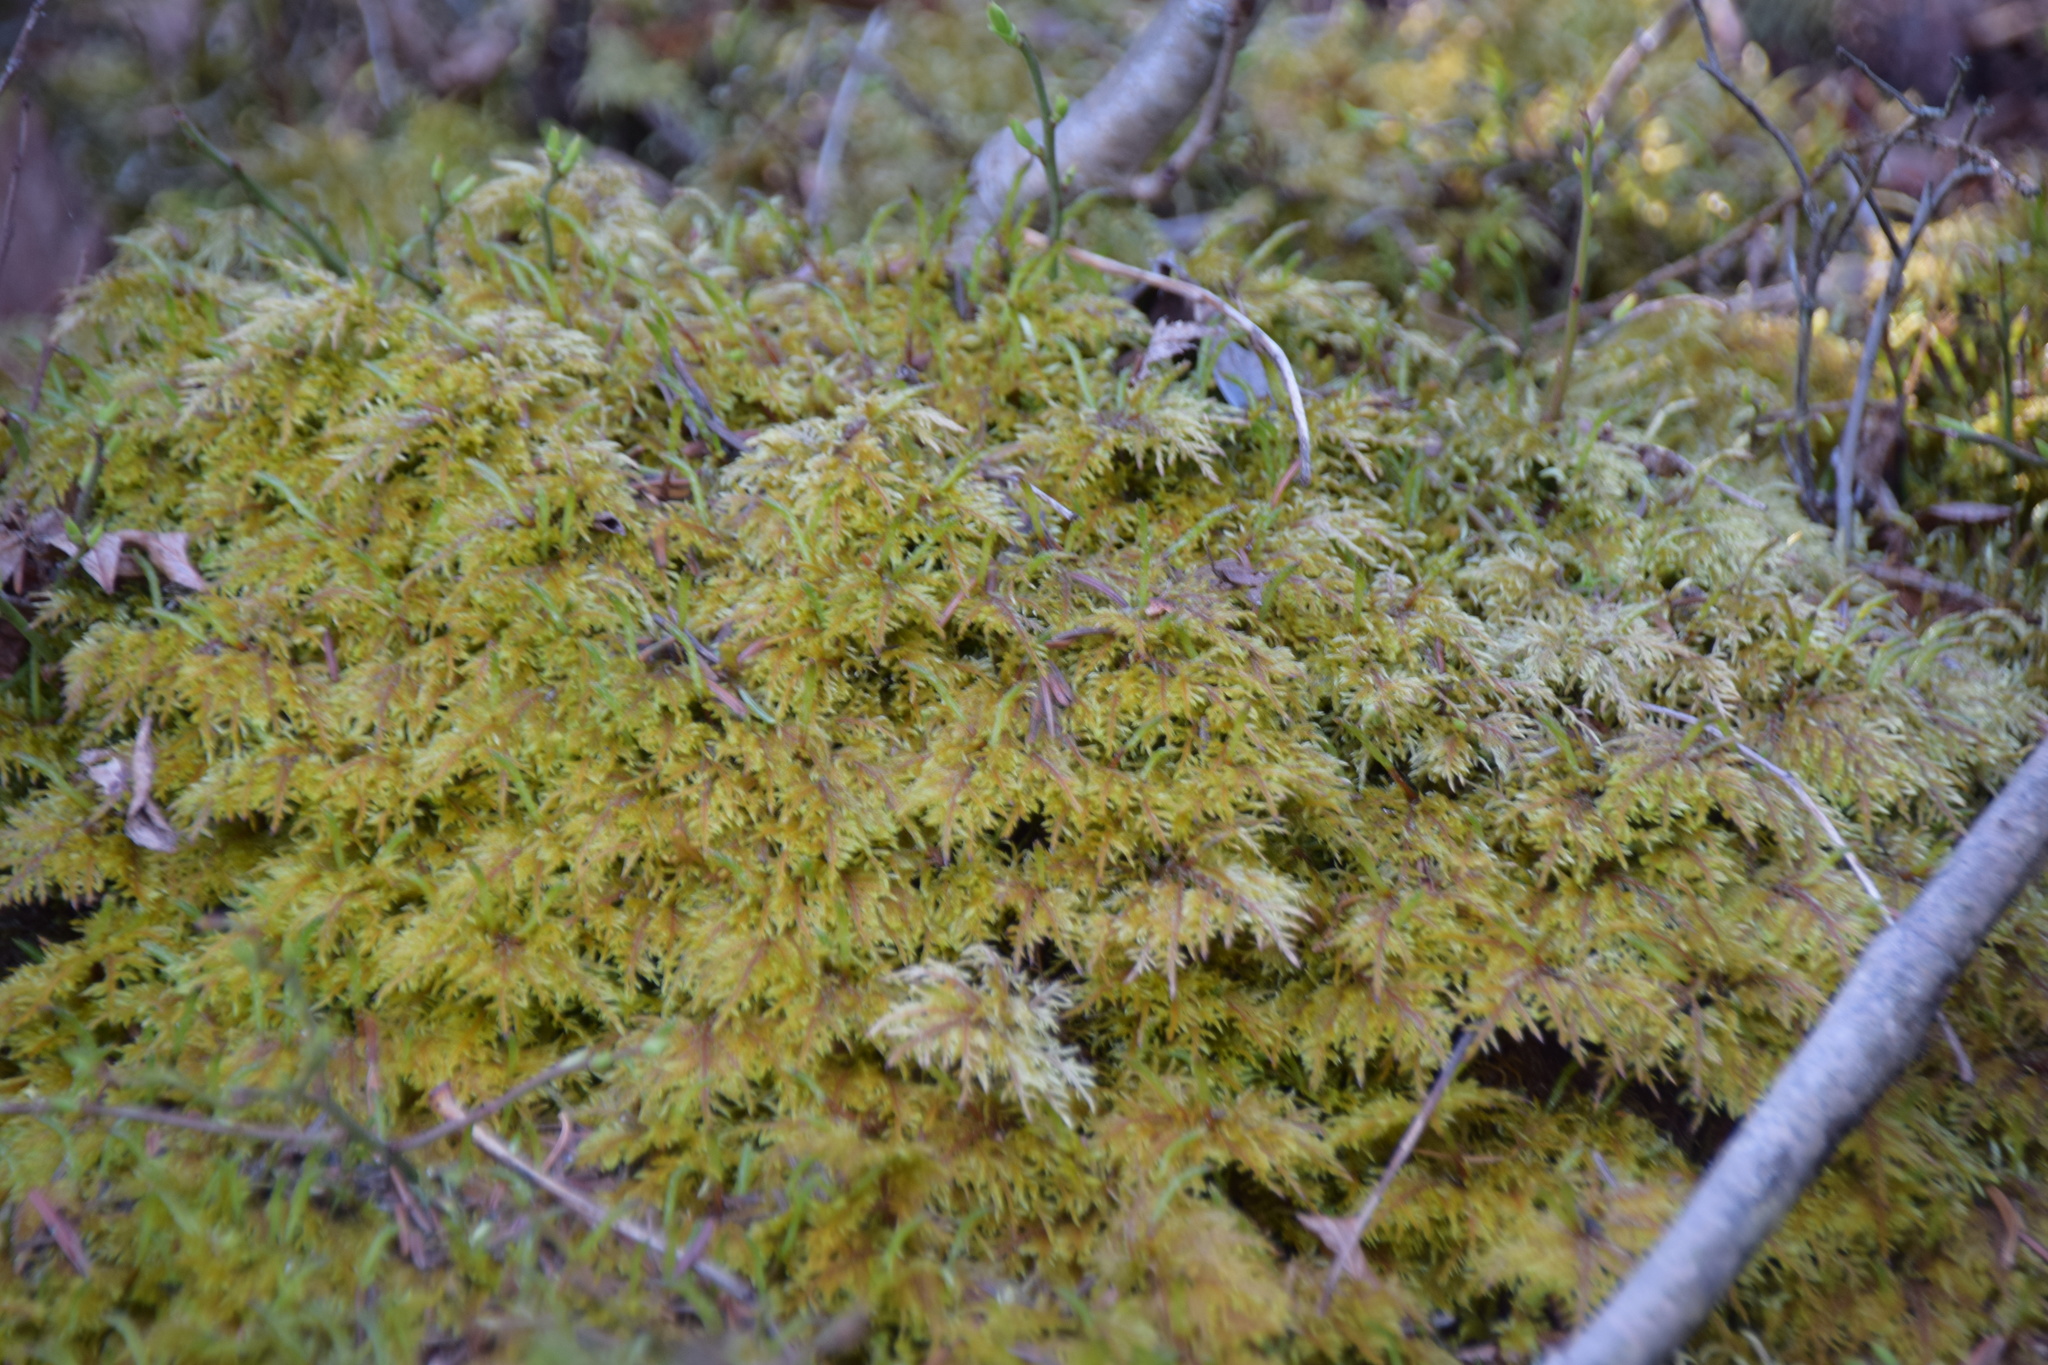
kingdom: Plantae
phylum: Bryophyta
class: Bryopsida
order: Hypnales
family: Hylocomiaceae
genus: Hylocomium
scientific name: Hylocomium splendens
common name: Stairstep moss
